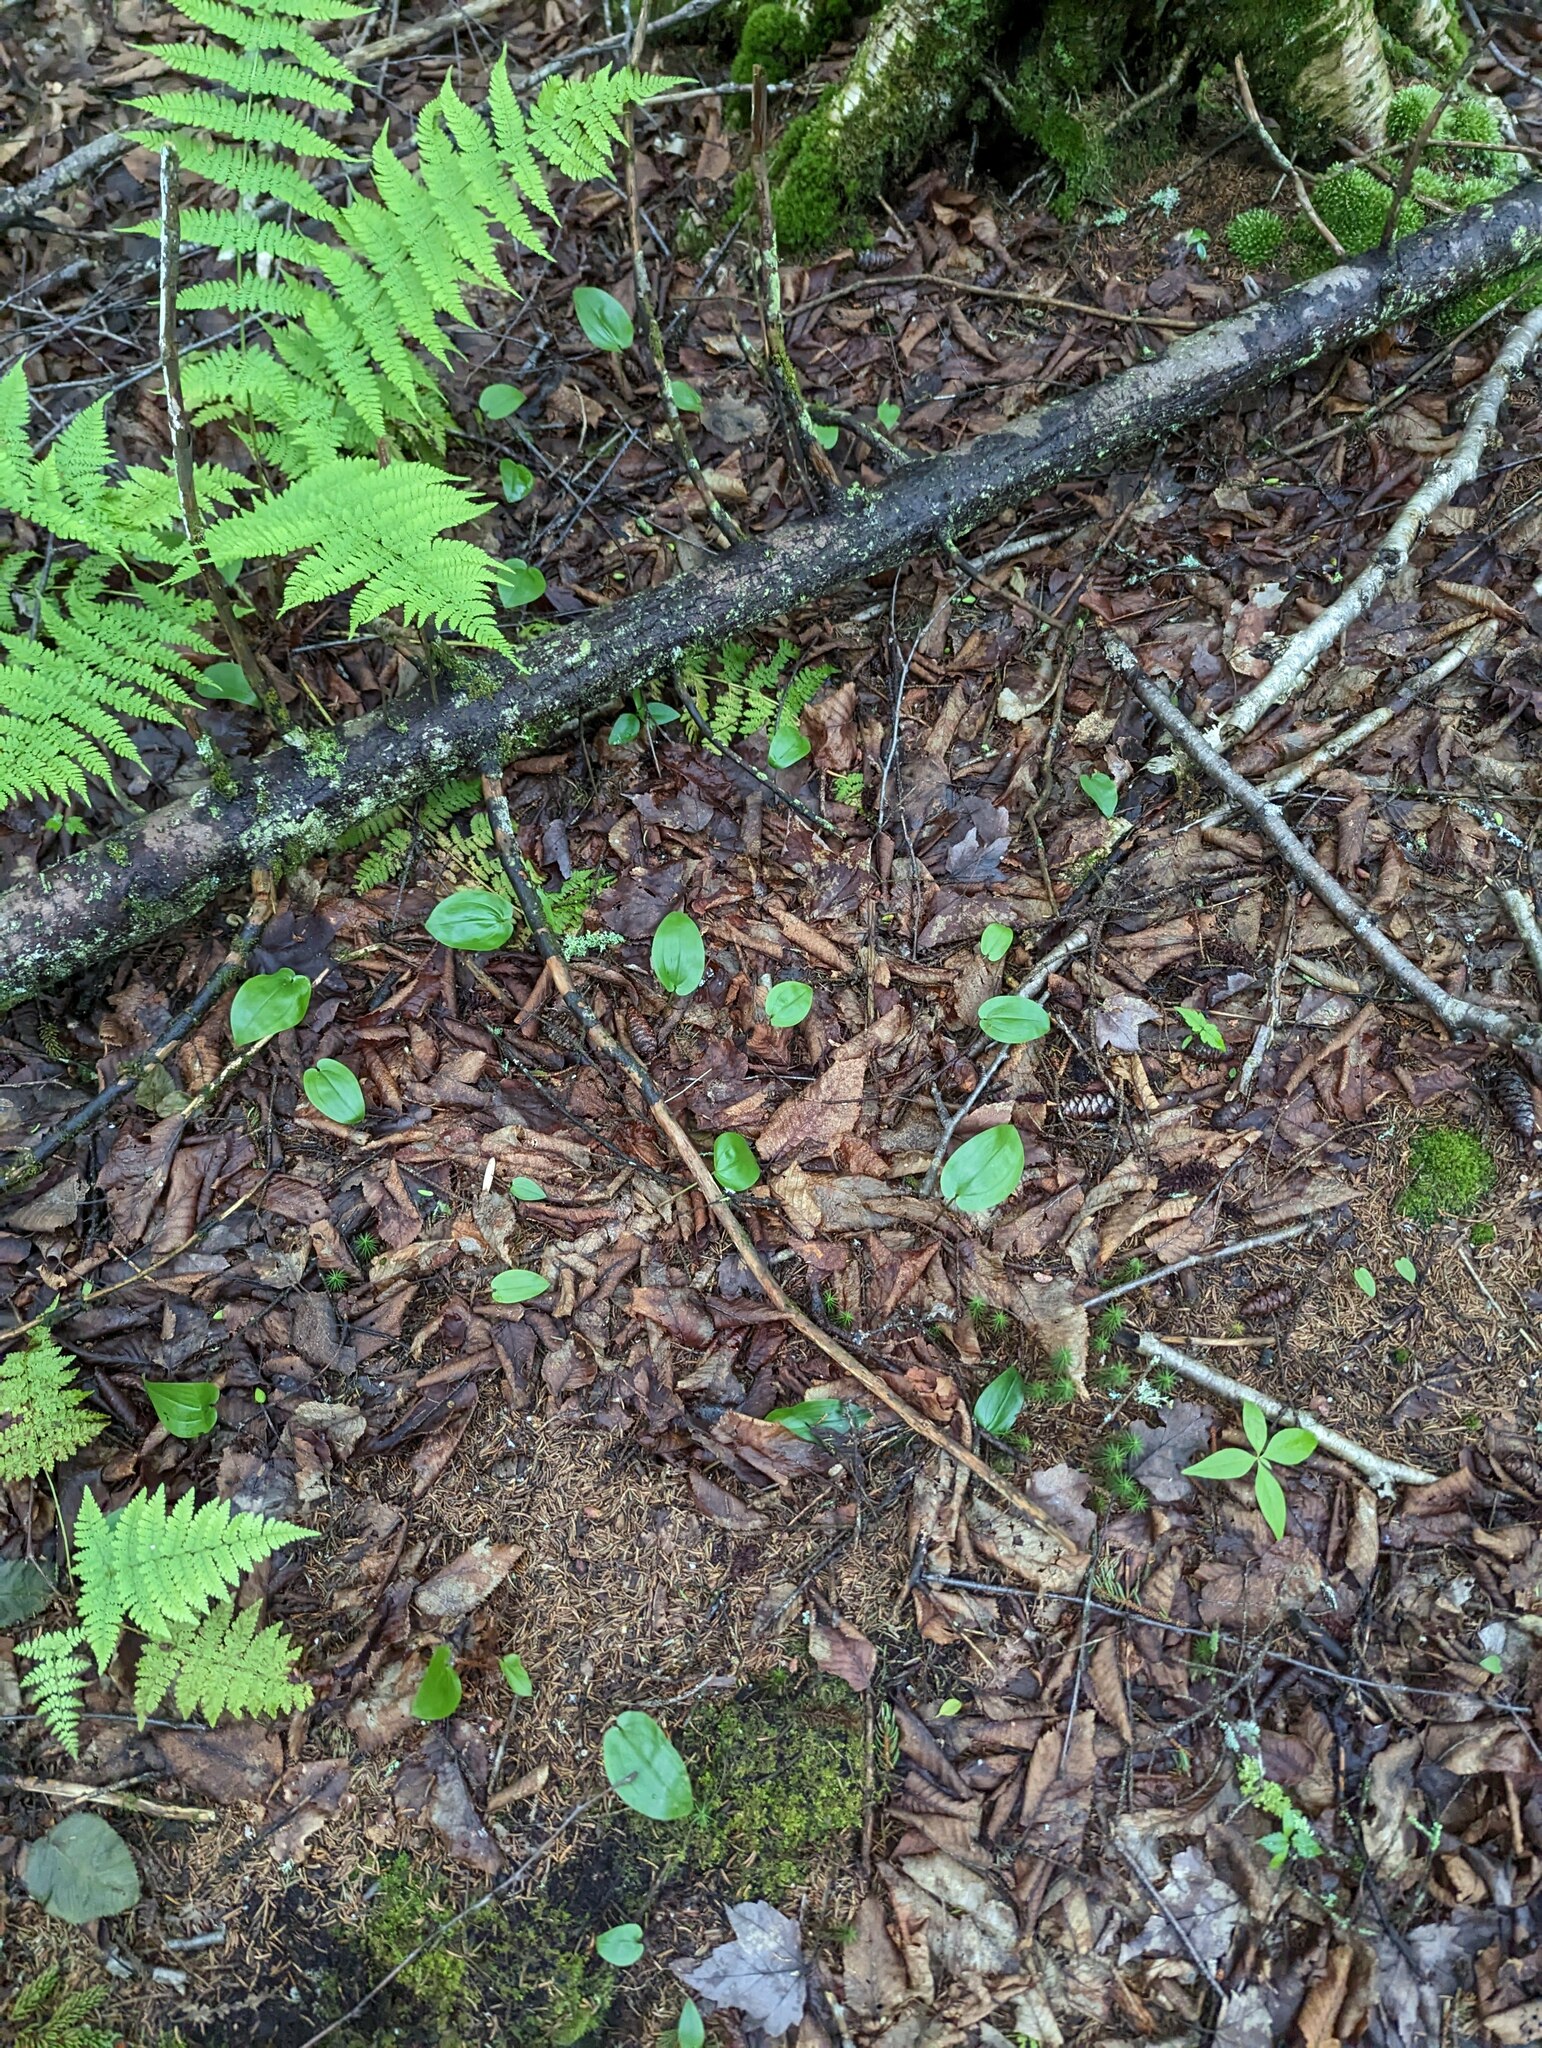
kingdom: Plantae
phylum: Tracheophyta
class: Liliopsida
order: Asparagales
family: Asparagaceae
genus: Maianthemum
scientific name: Maianthemum canadense
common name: False lily-of-the-valley
